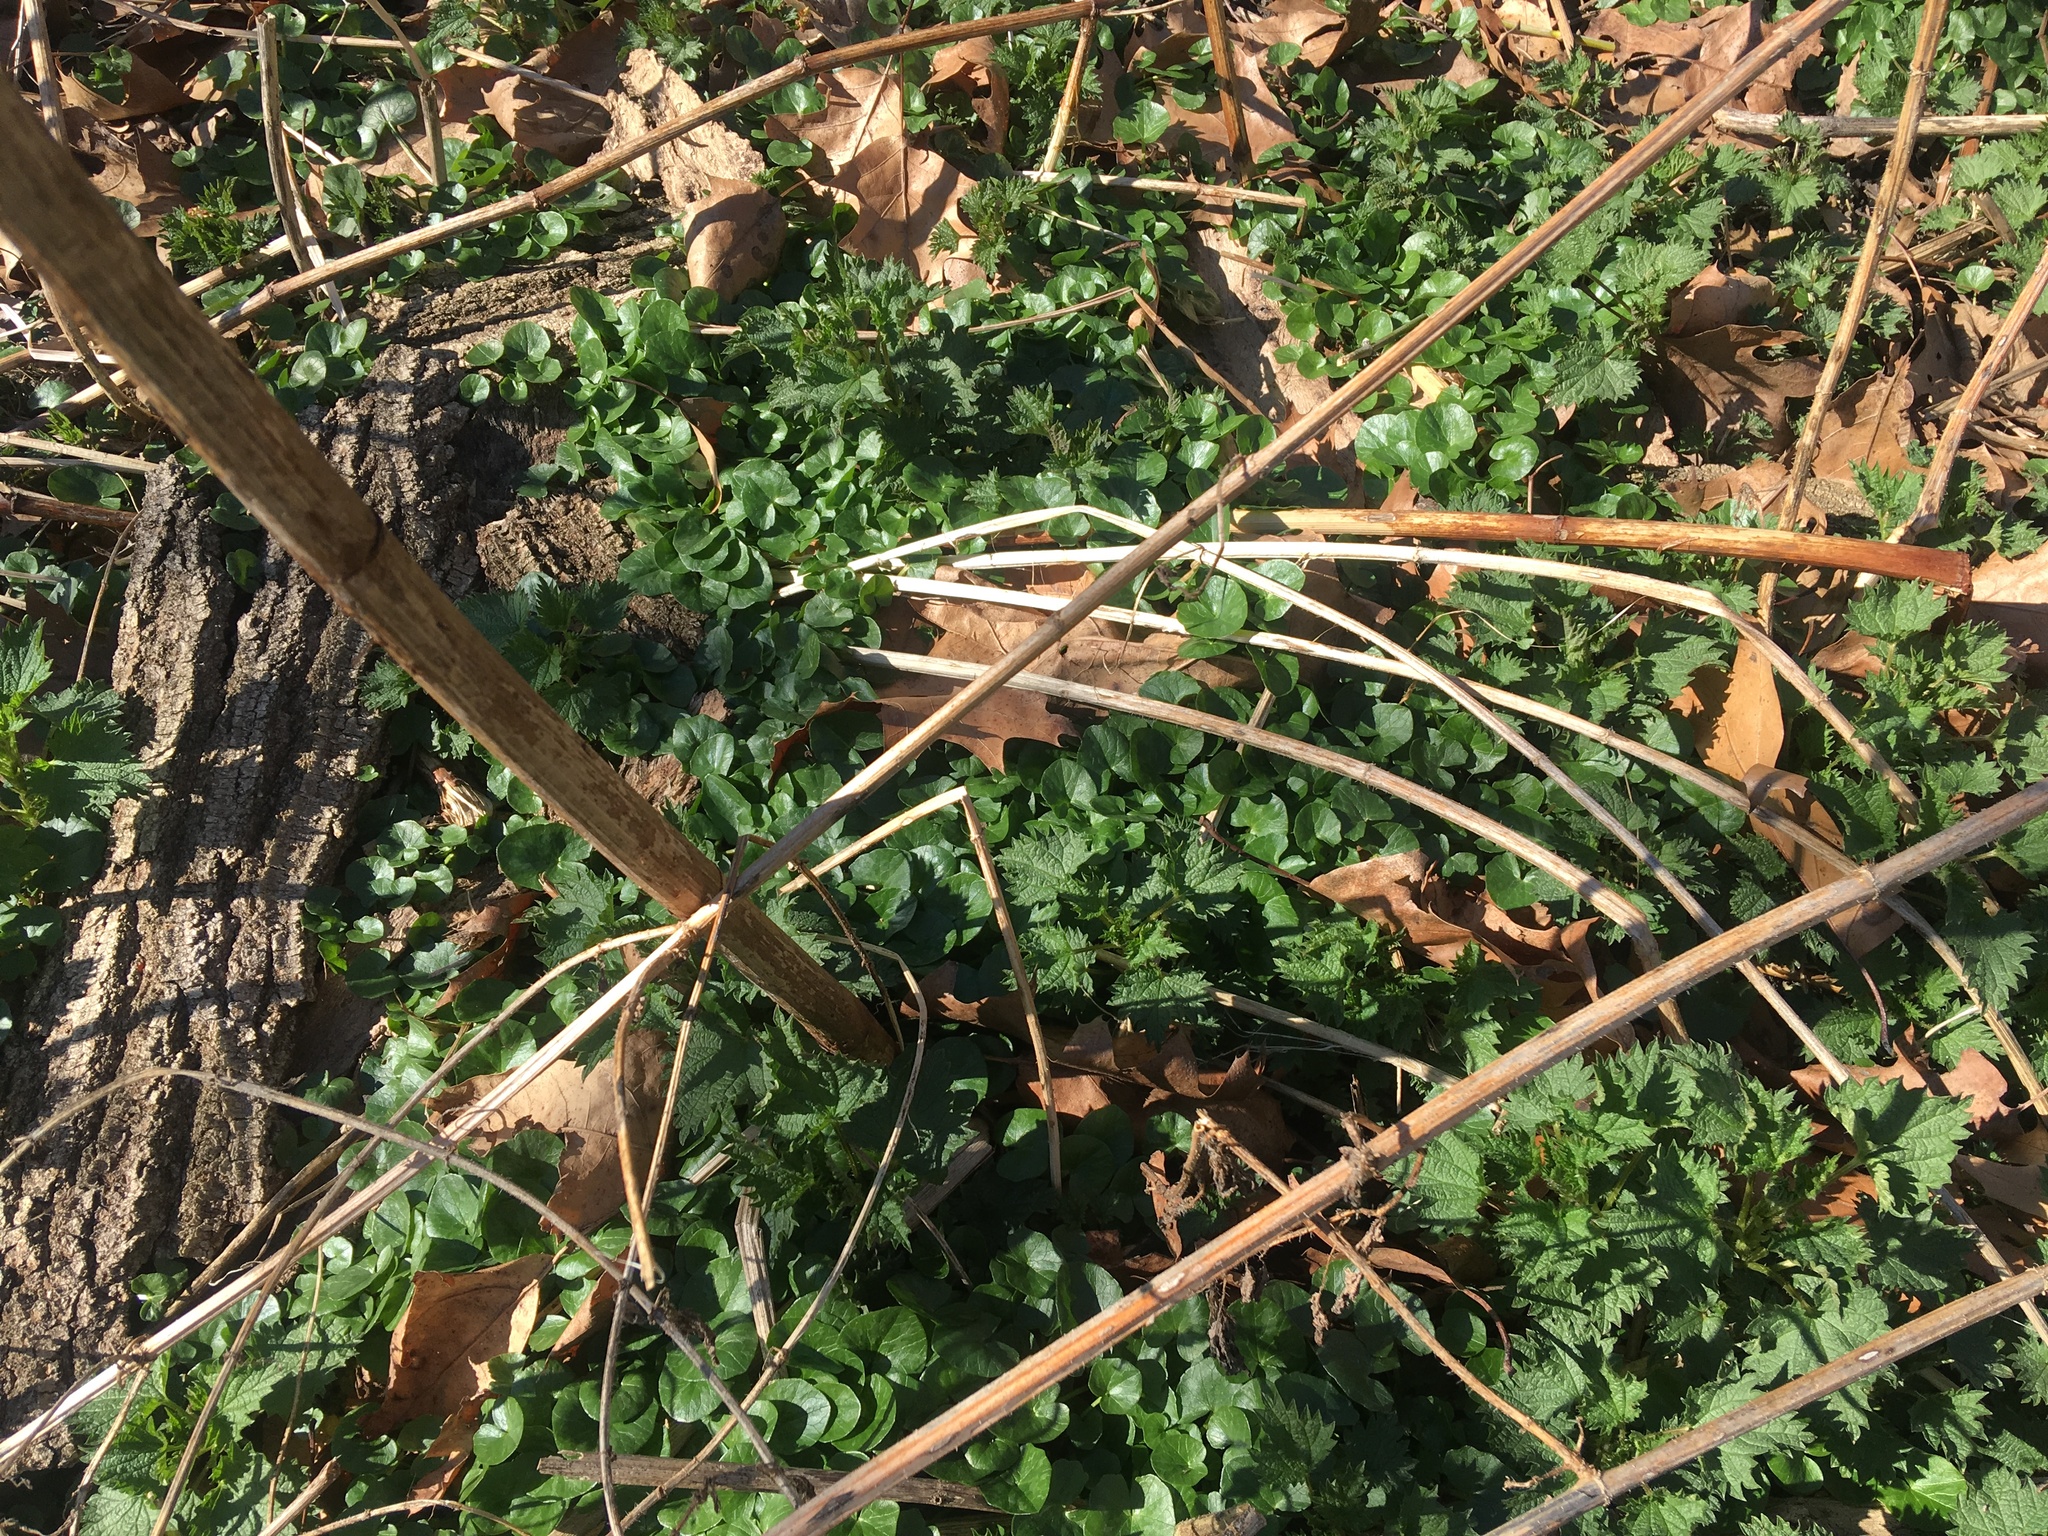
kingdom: Plantae
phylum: Tracheophyta
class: Magnoliopsida
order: Ranunculales
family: Ranunculaceae
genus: Ficaria
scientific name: Ficaria verna
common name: Lesser celandine
